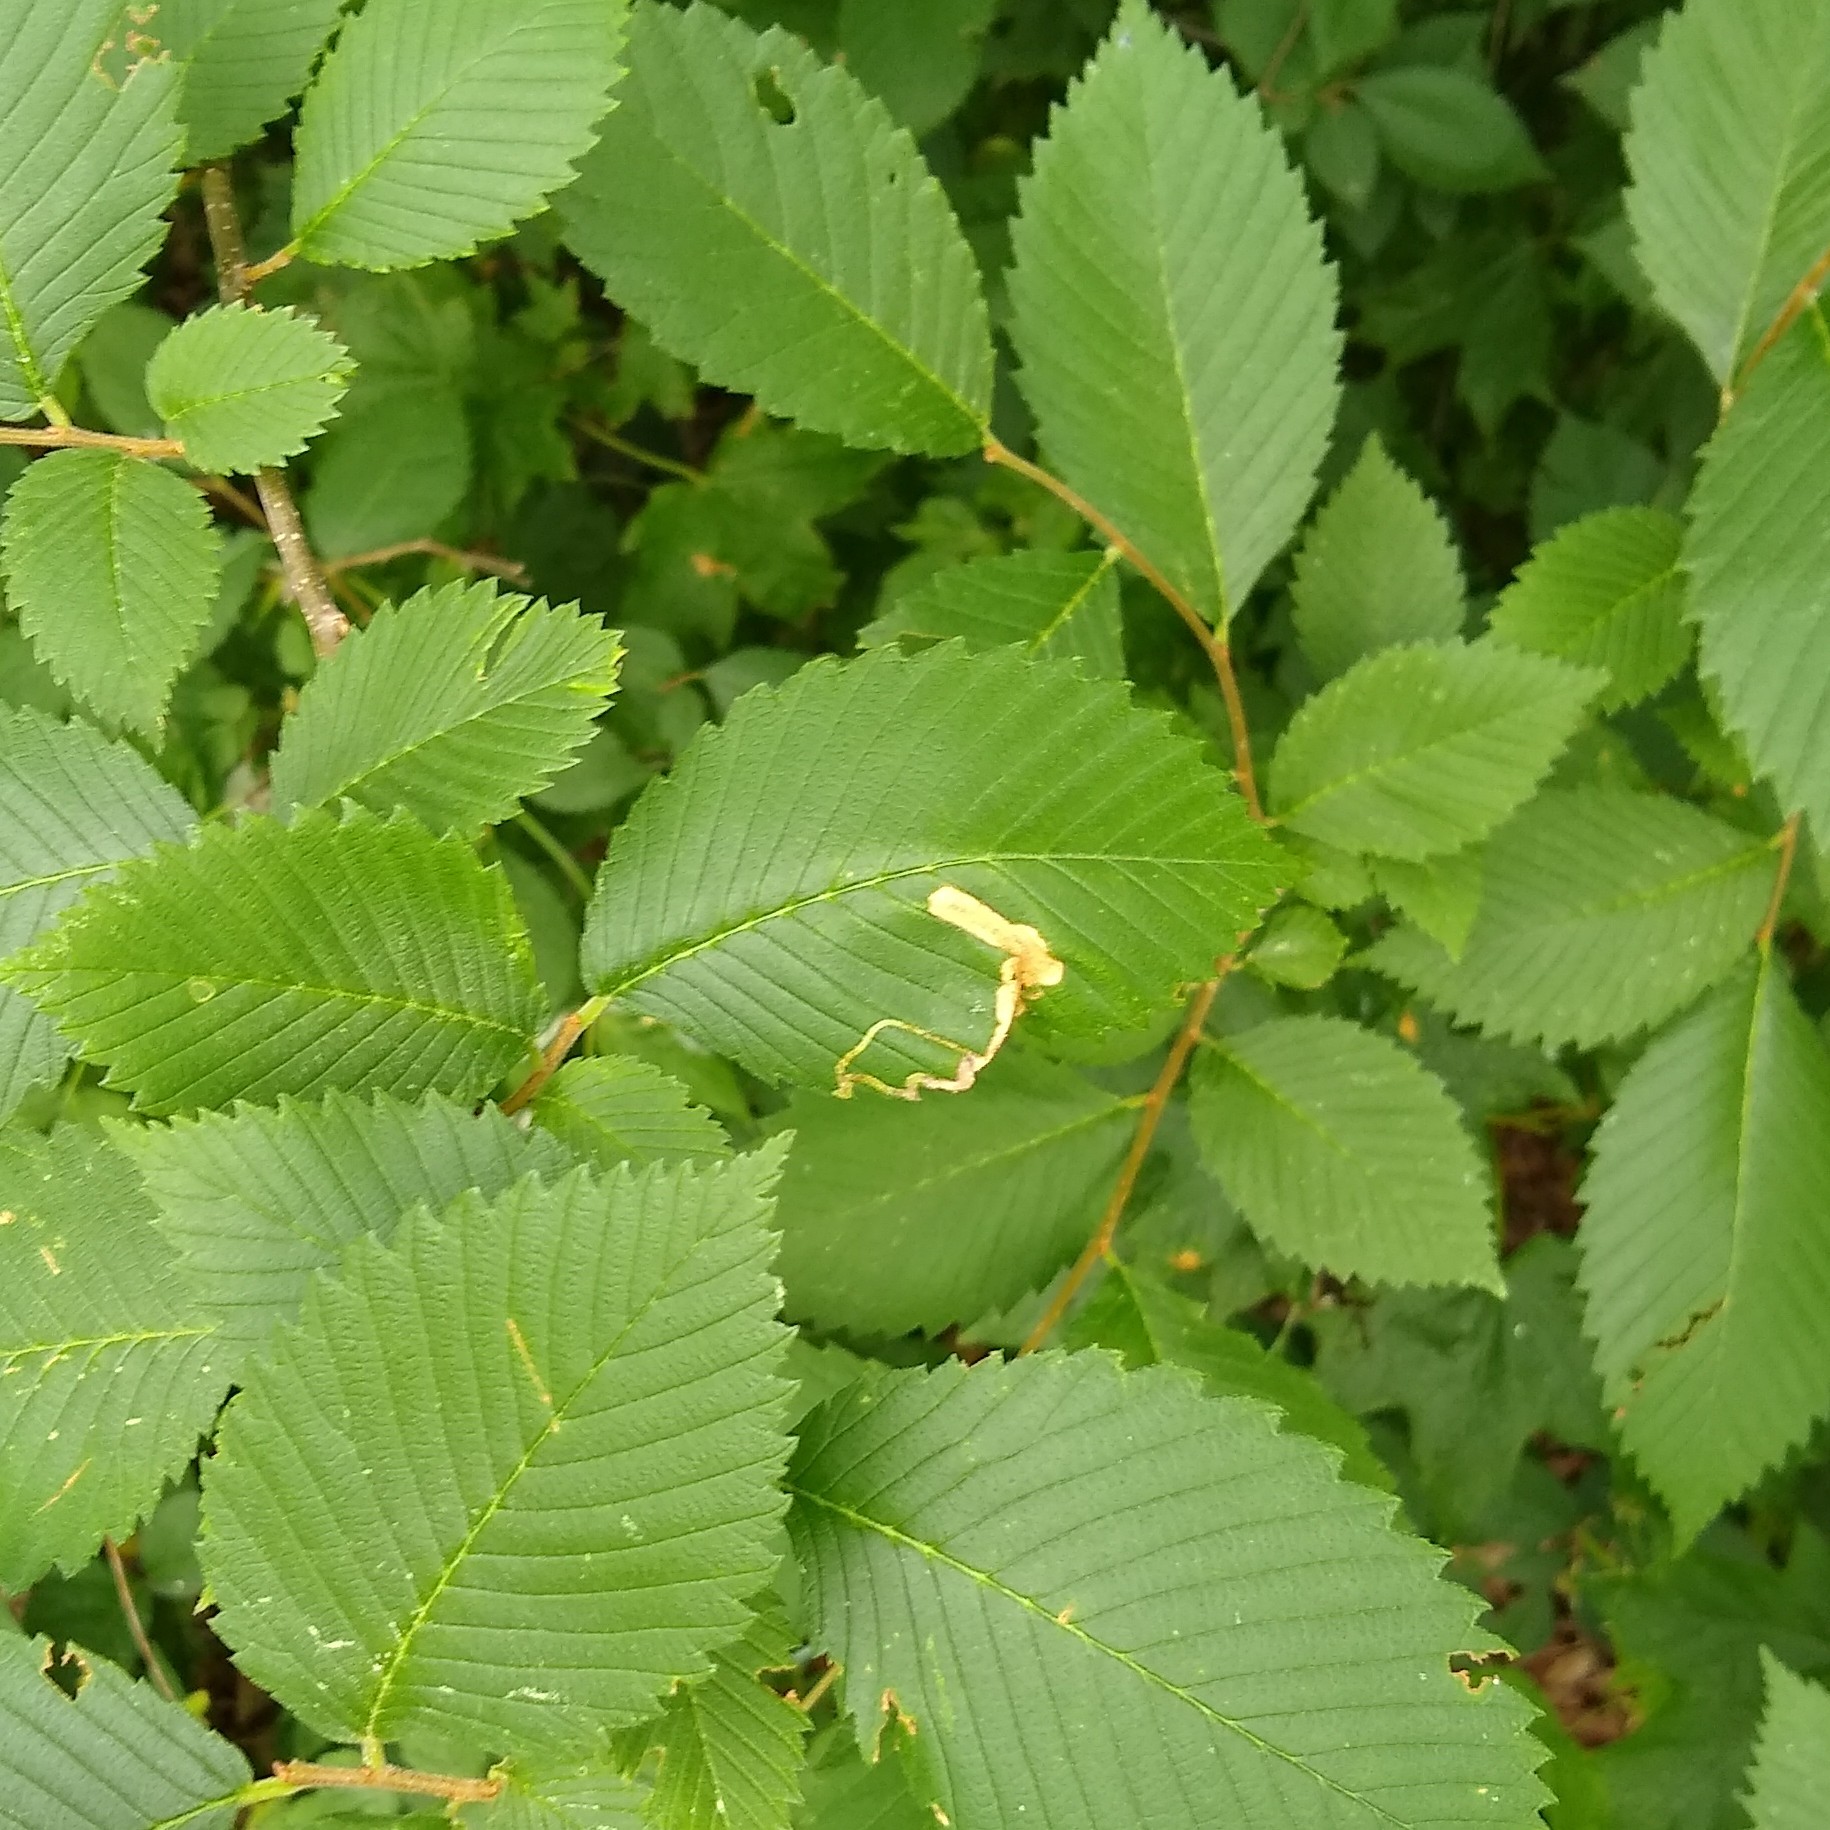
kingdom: Plantae
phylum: Tracheophyta
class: Magnoliopsida
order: Rosales
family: Ulmaceae
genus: Ulmus
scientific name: Ulmus americana
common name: American elm
